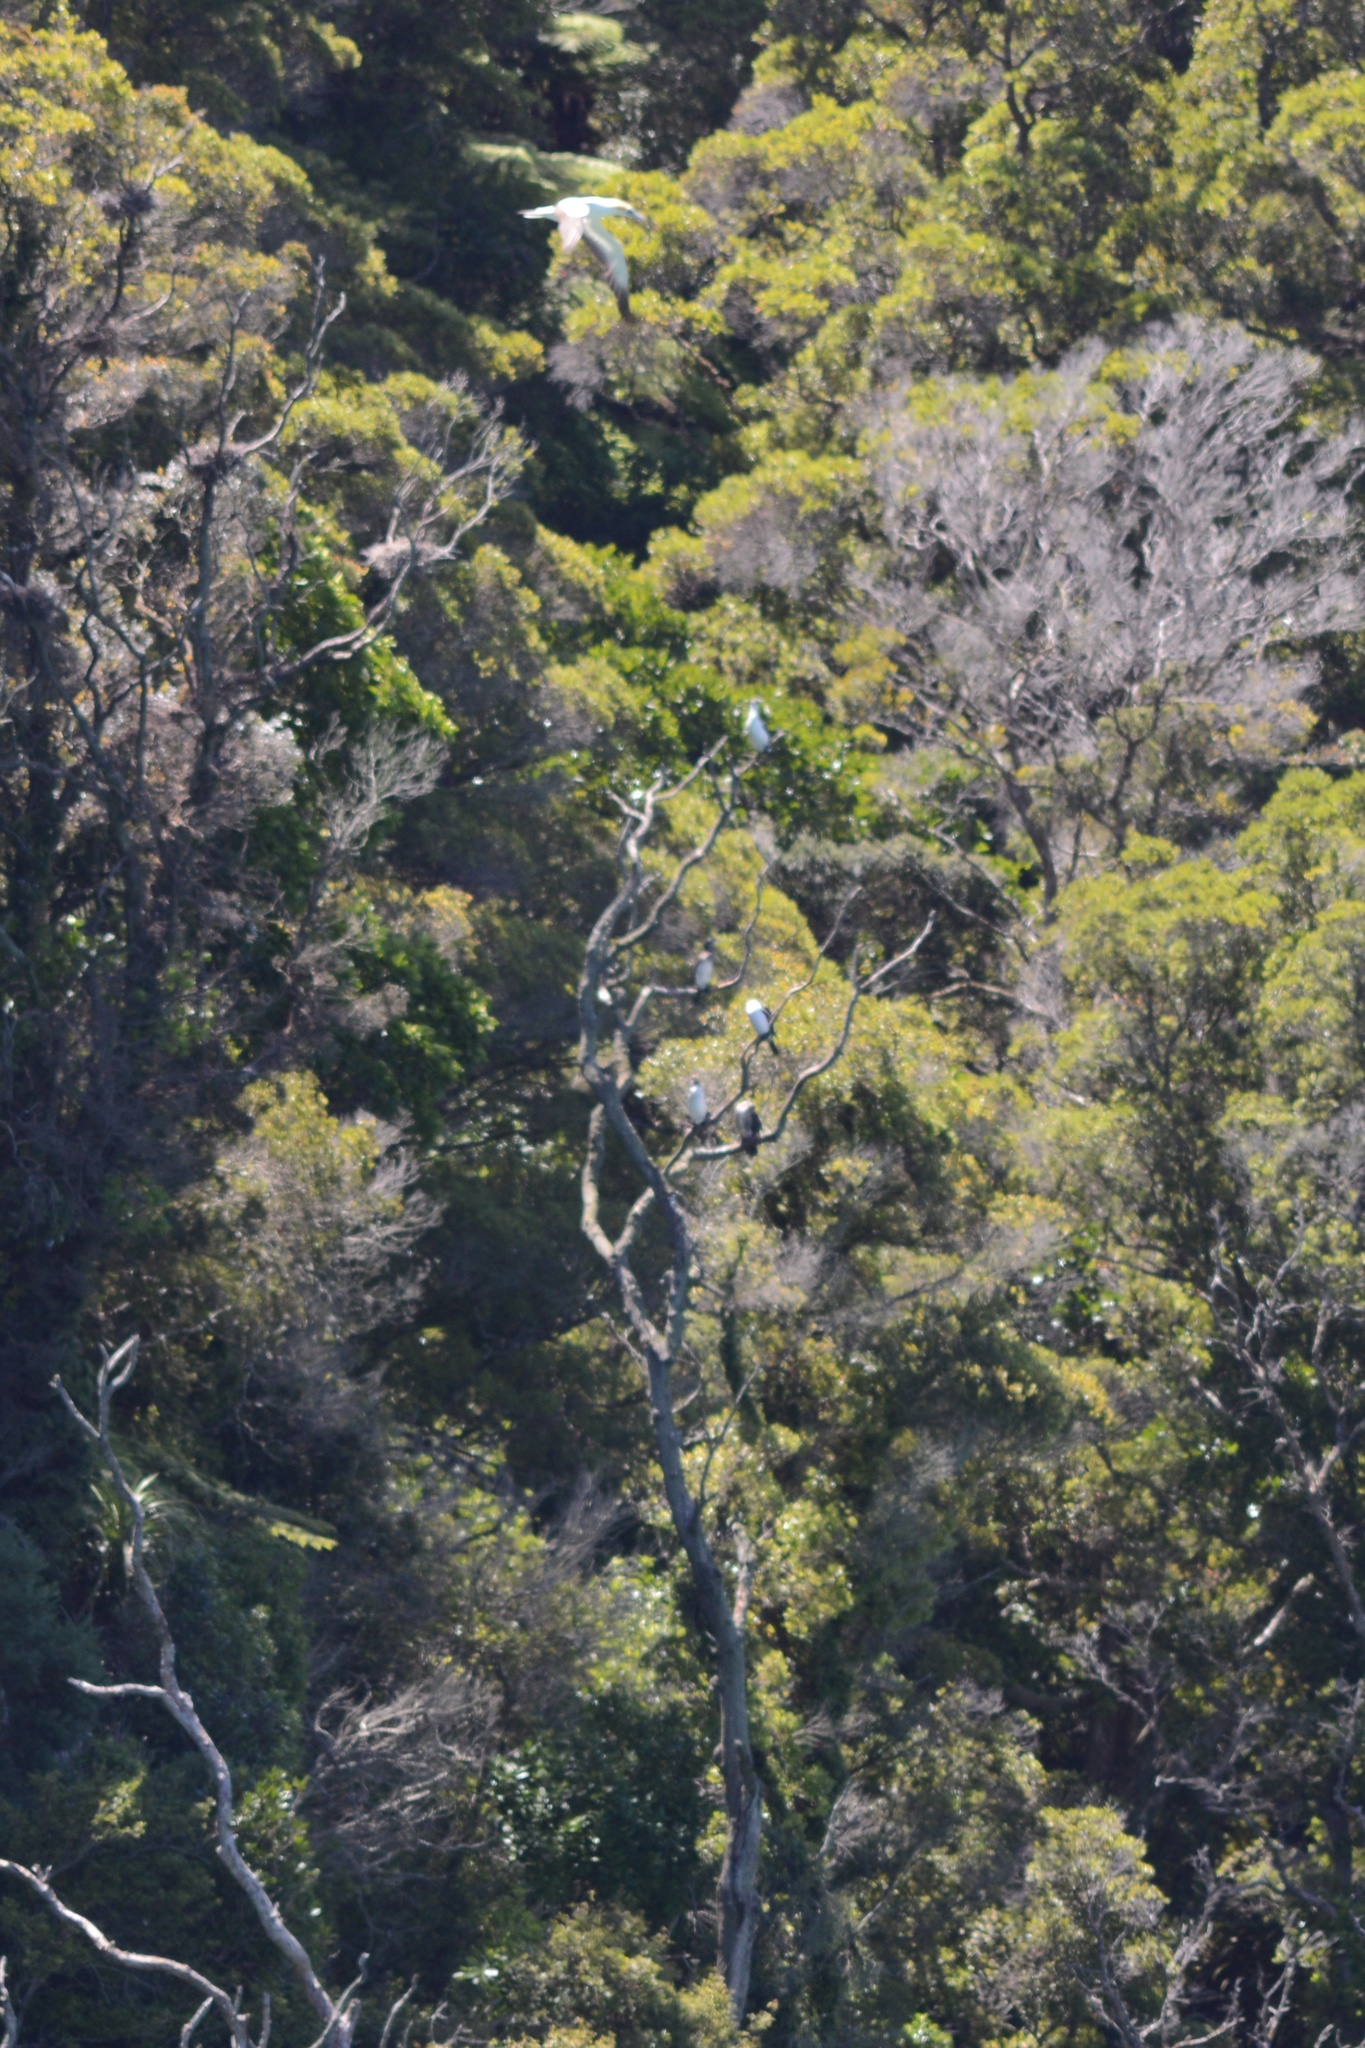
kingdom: Animalia
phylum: Chordata
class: Aves
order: Suliformes
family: Phalacrocoracidae
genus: Phalacrocorax
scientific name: Phalacrocorax varius
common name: Pied cormorant
